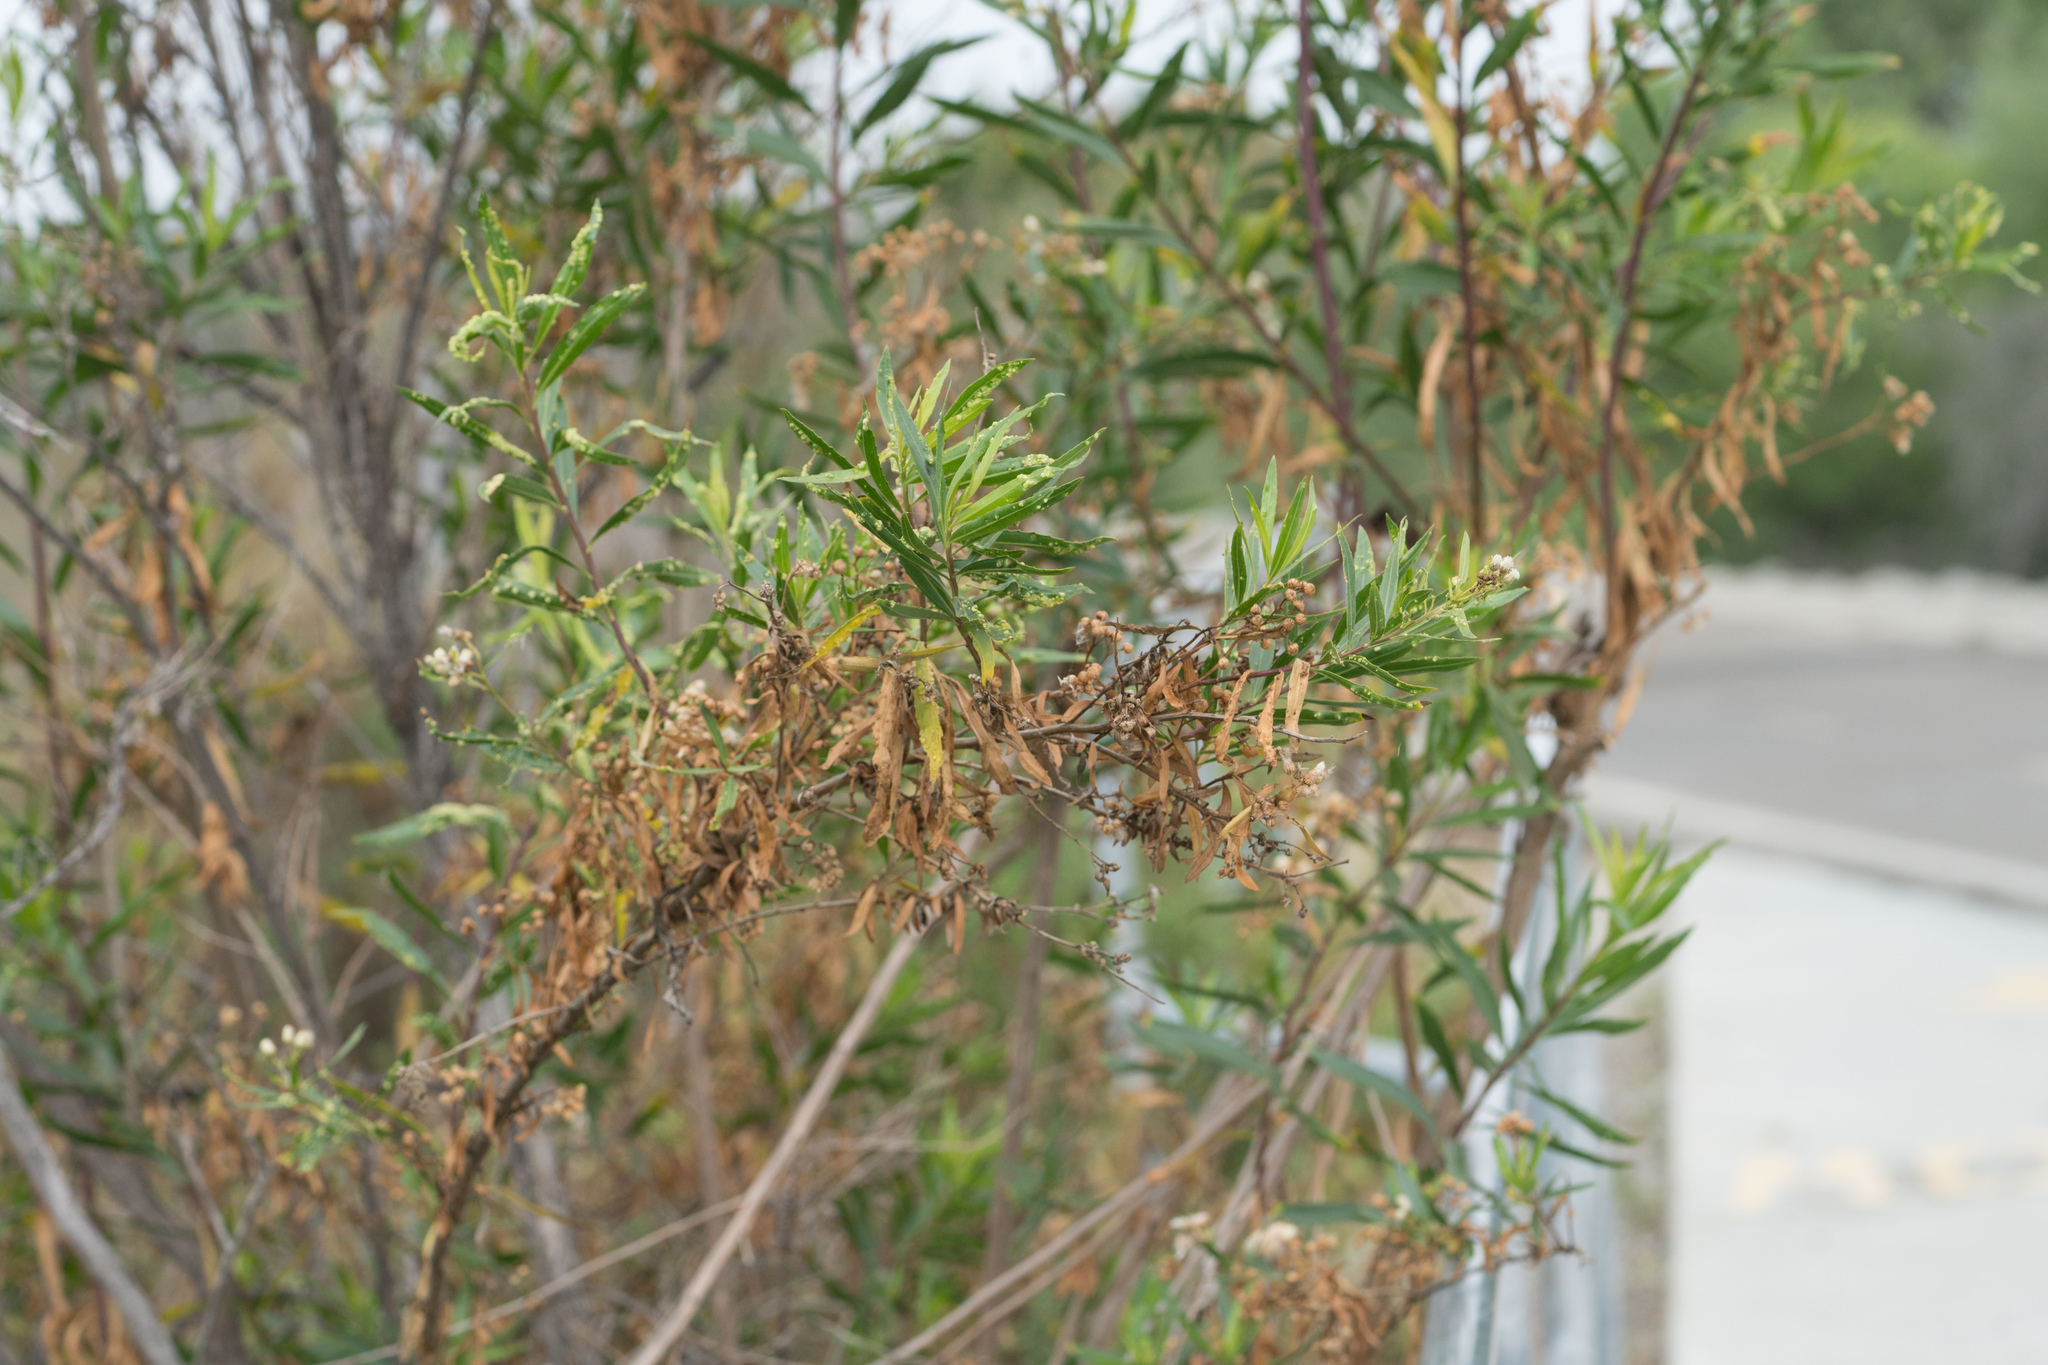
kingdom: Plantae
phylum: Tracheophyta
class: Magnoliopsida
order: Asterales
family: Asteraceae
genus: Baccharis
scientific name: Baccharis salicifolia
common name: Sticky baccharis
